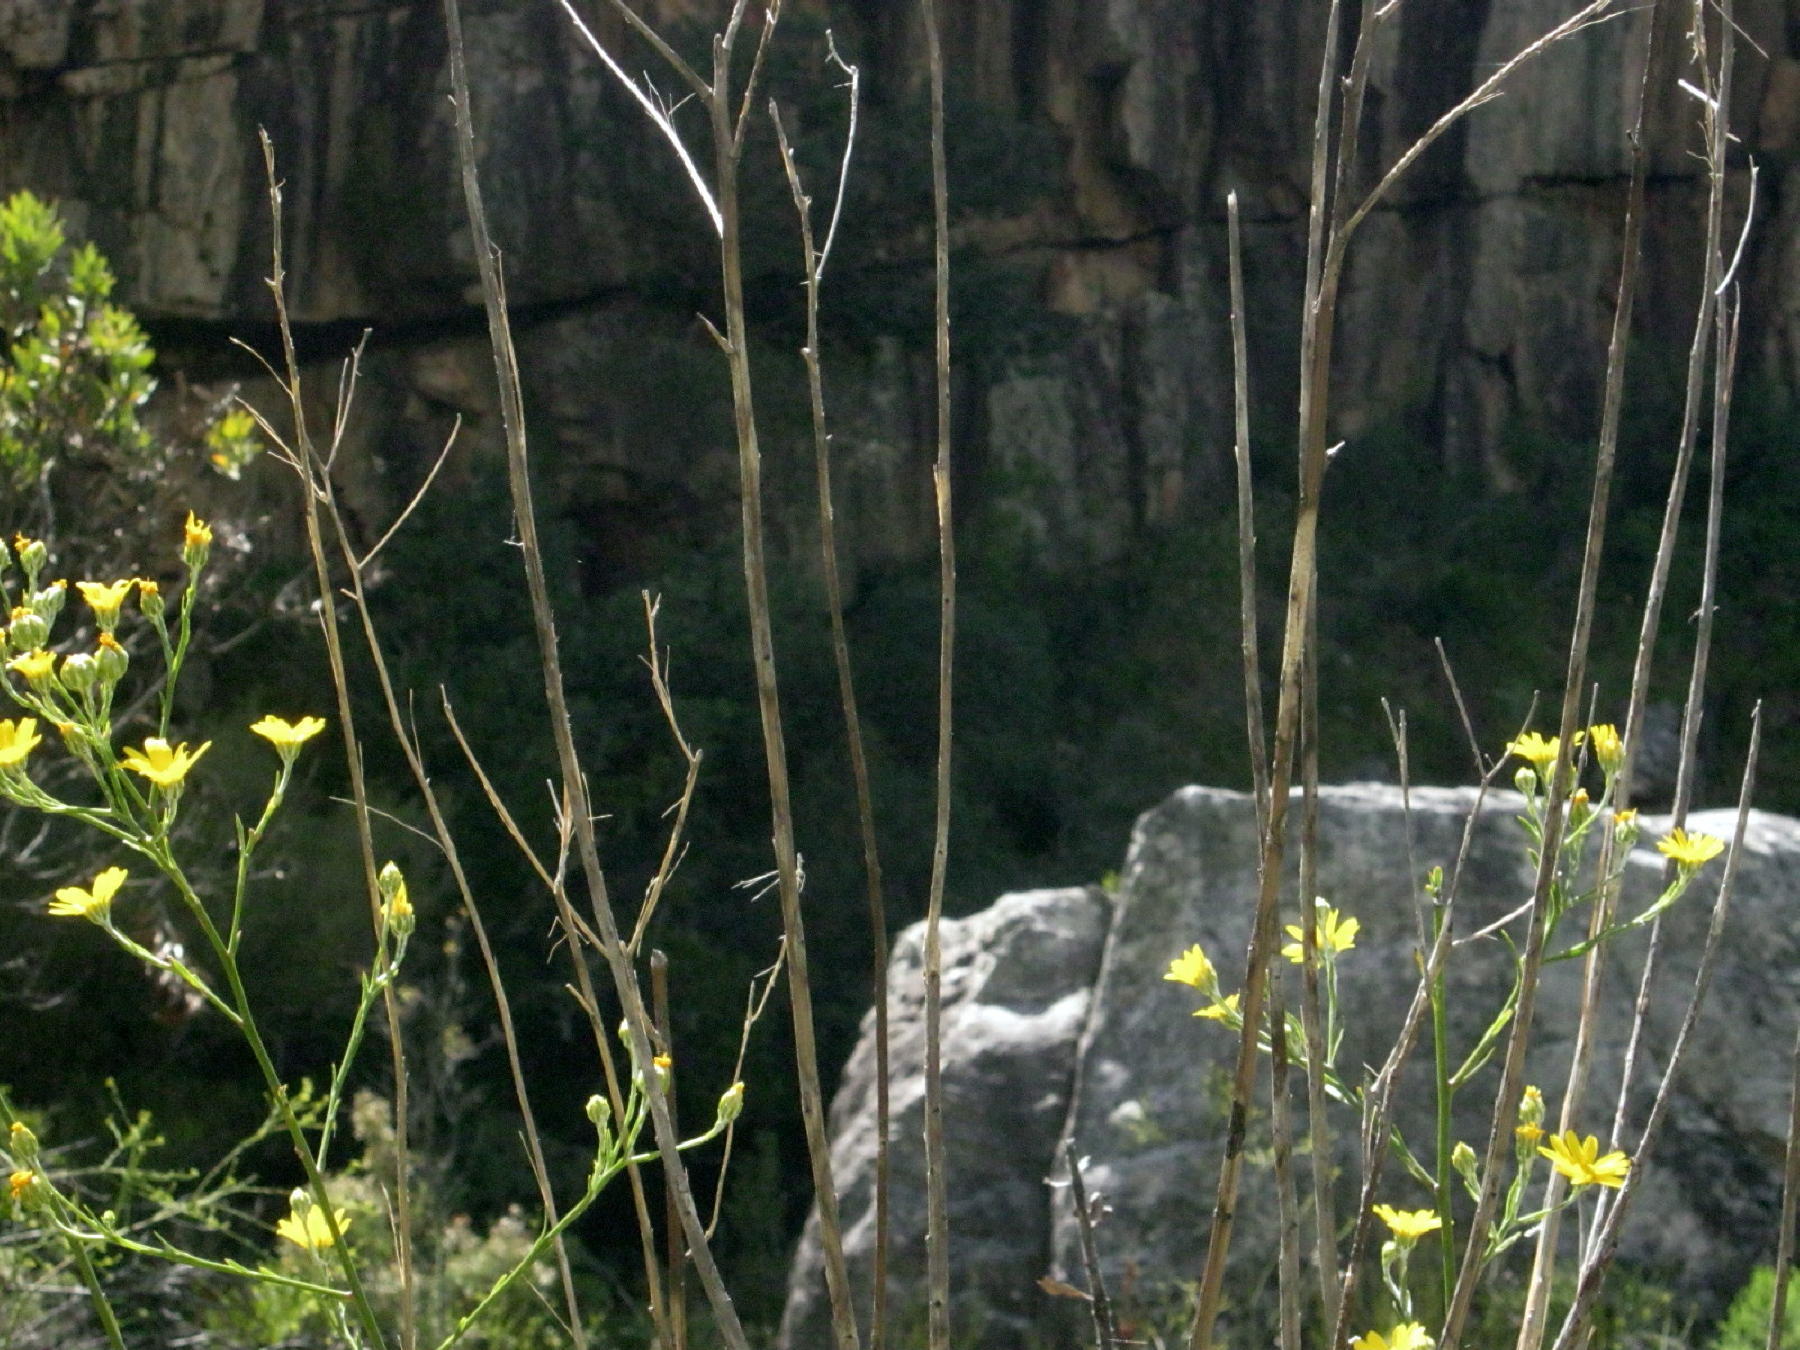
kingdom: Plantae
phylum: Tracheophyta
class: Magnoliopsida
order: Asterales
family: Asteraceae
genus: Osteospermum
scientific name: Osteospermum junceum
